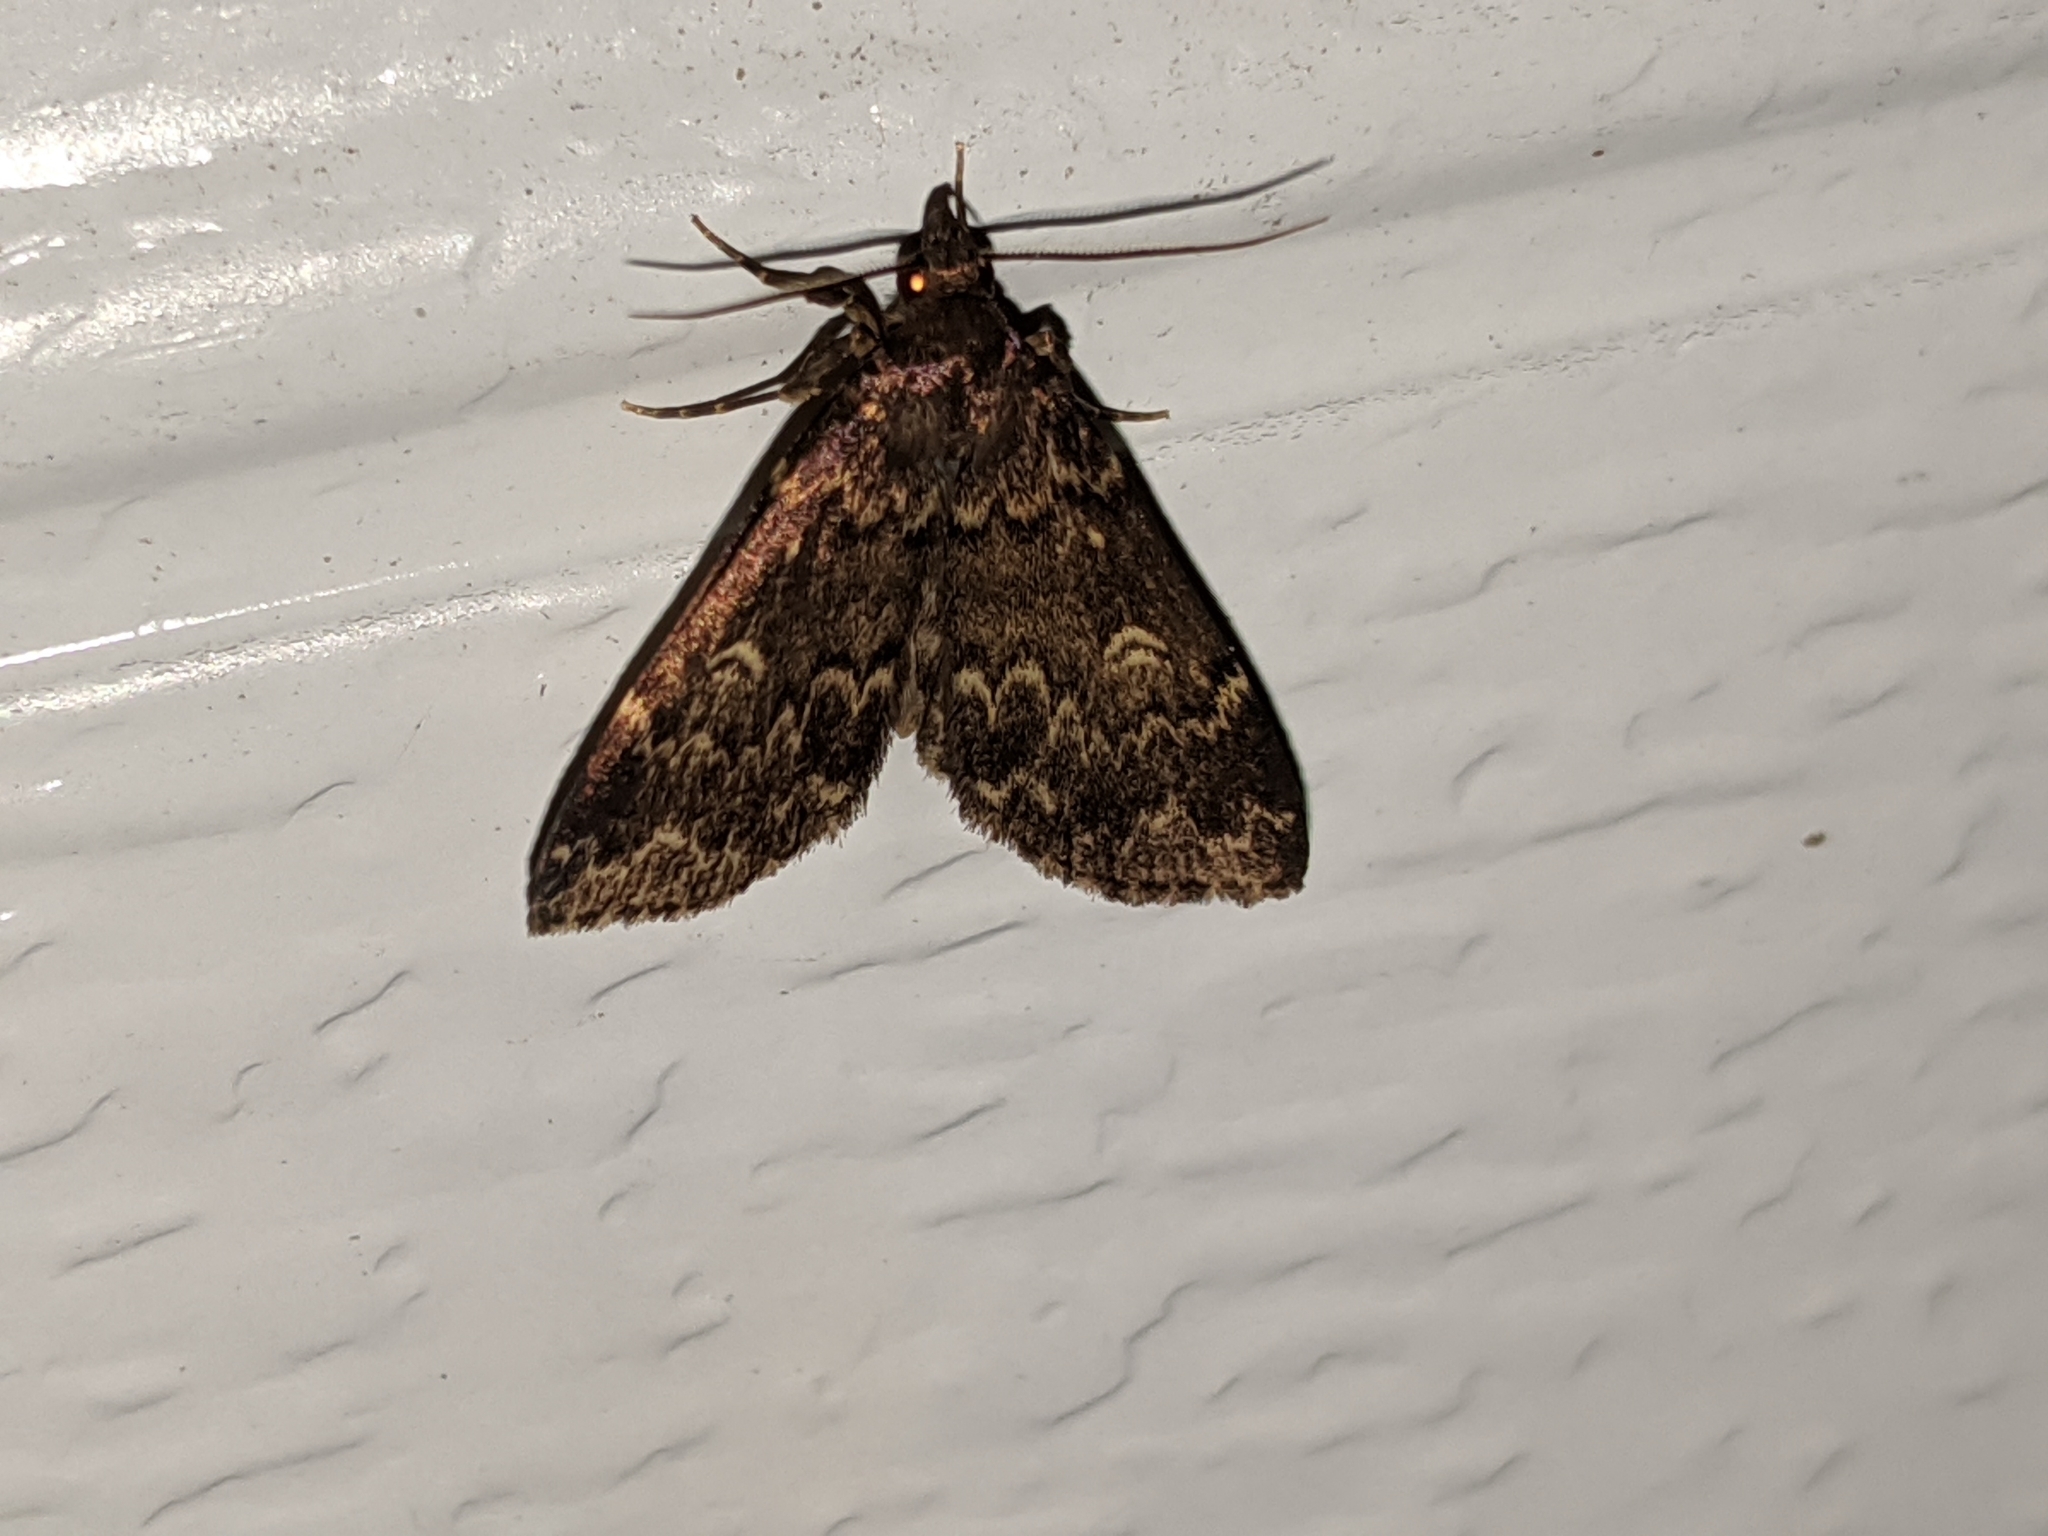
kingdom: Animalia
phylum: Arthropoda
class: Insecta
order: Lepidoptera
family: Erebidae
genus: Idia
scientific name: Idia lubricalis
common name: Twin-striped tabby
